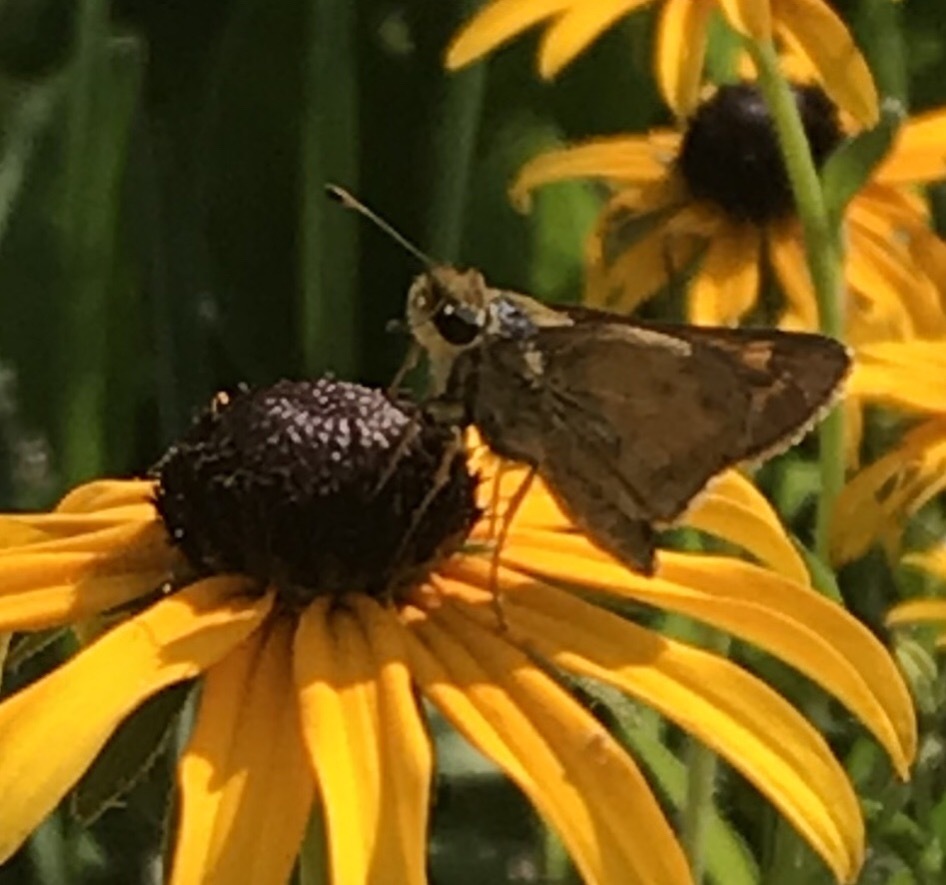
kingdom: Animalia
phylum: Arthropoda
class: Insecta
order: Lepidoptera
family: Hesperiidae
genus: Atalopedes
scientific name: Atalopedes
